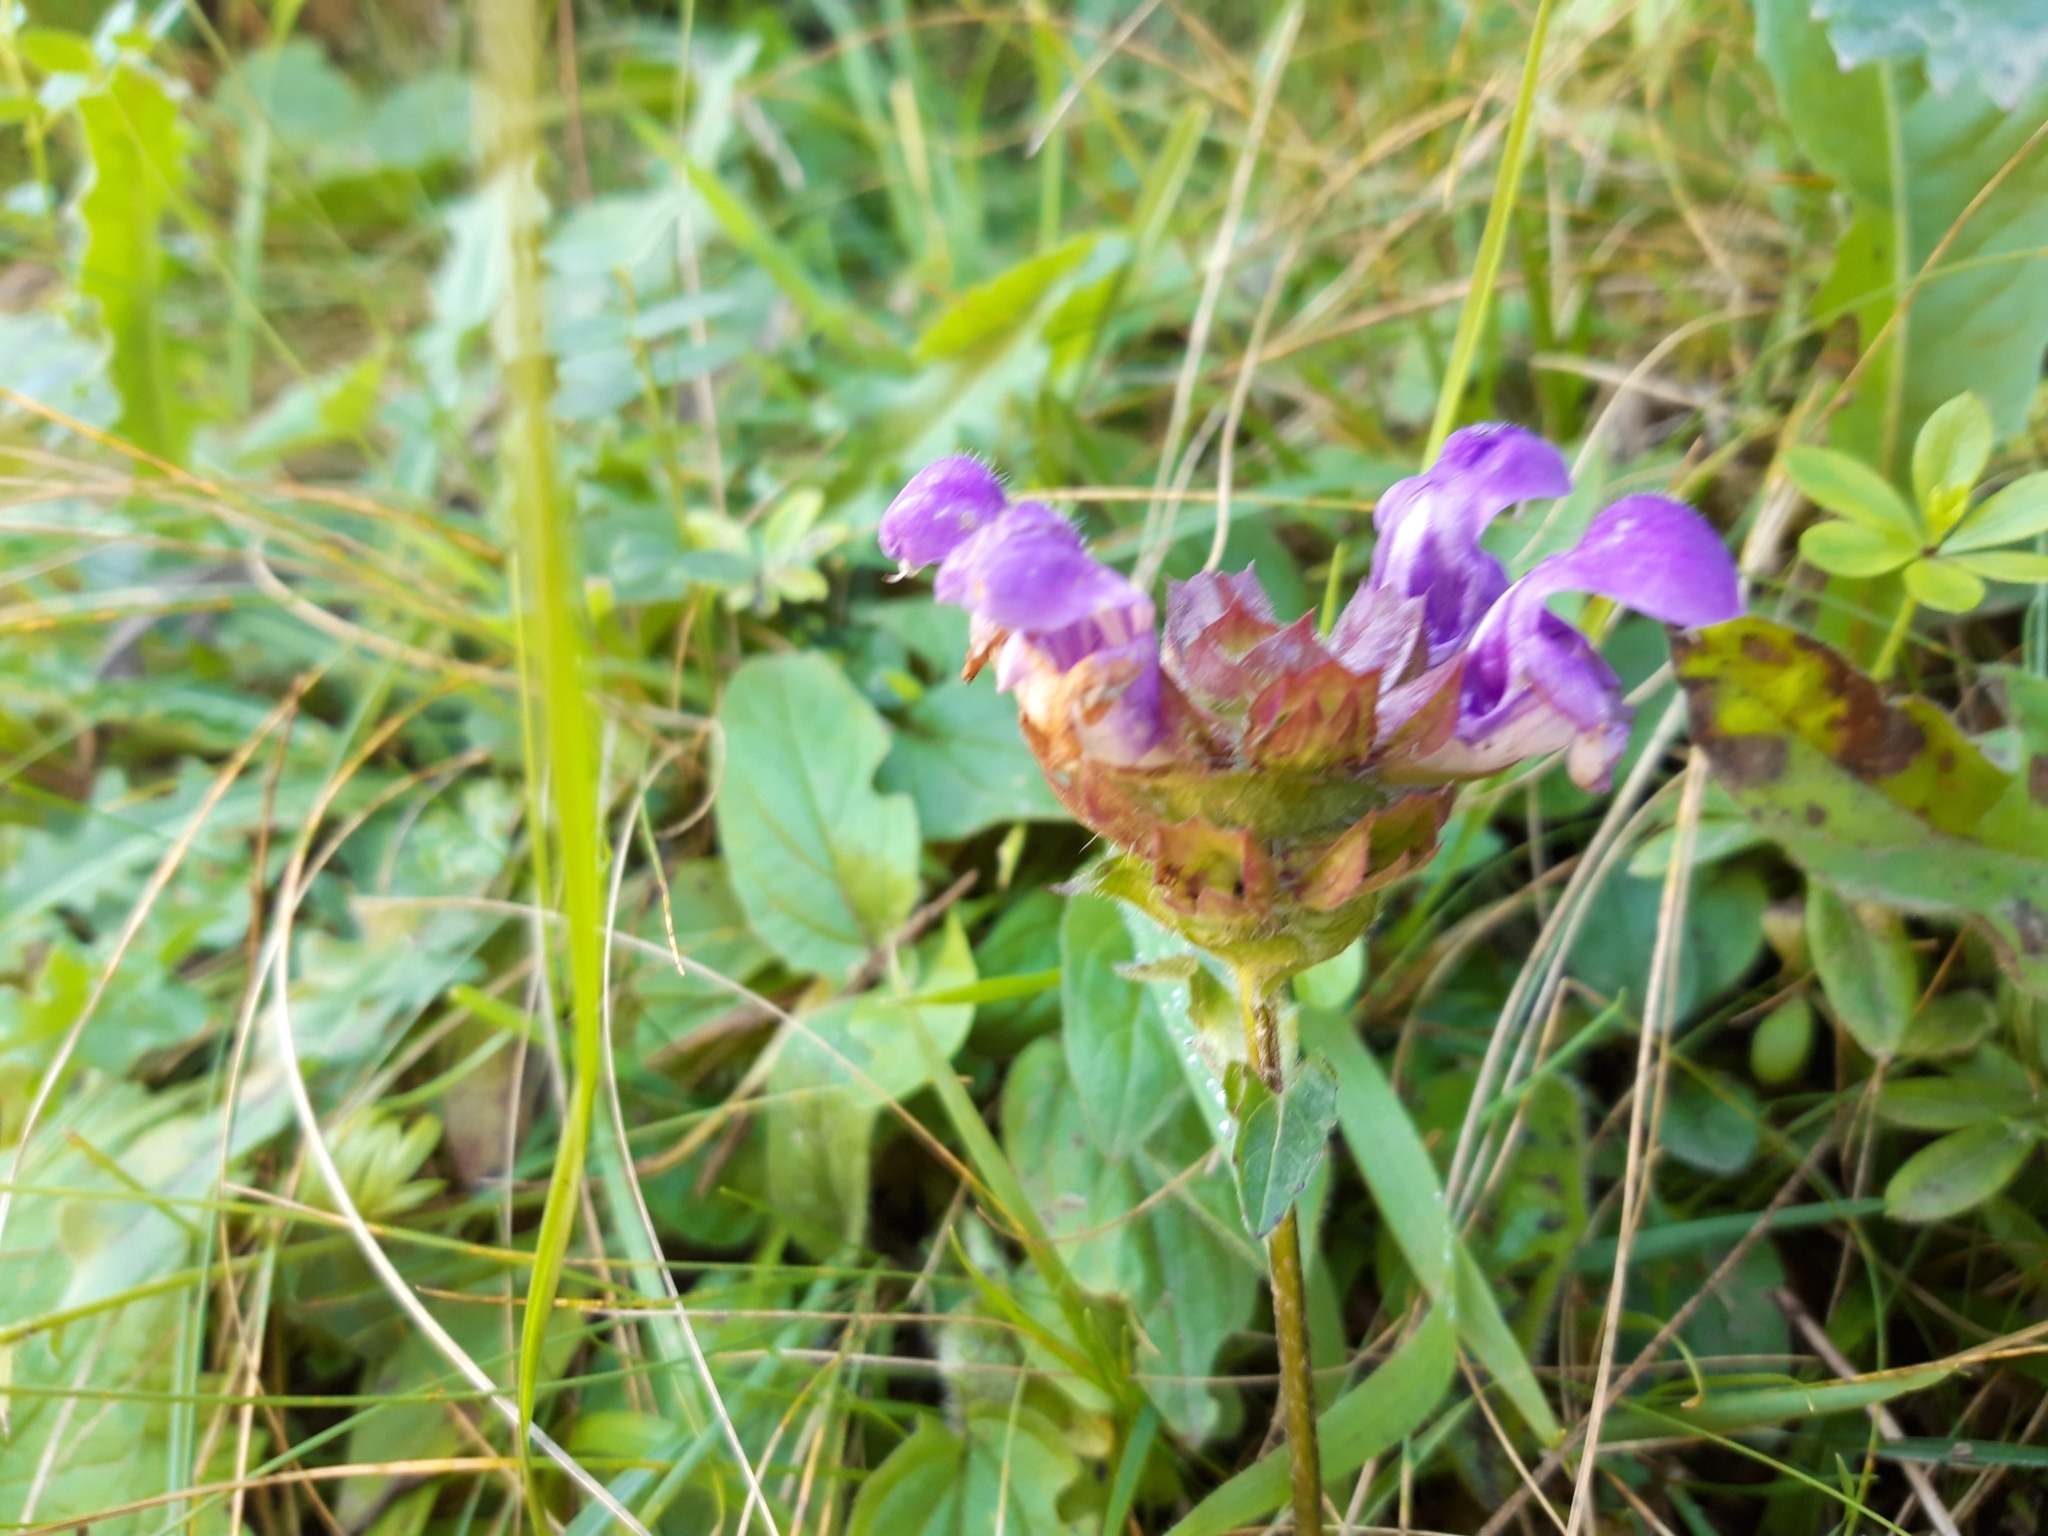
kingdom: Plantae
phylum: Tracheophyta
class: Magnoliopsida
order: Lamiales
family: Lamiaceae
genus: Prunella
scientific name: Prunella vulgaris
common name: Heal-all
